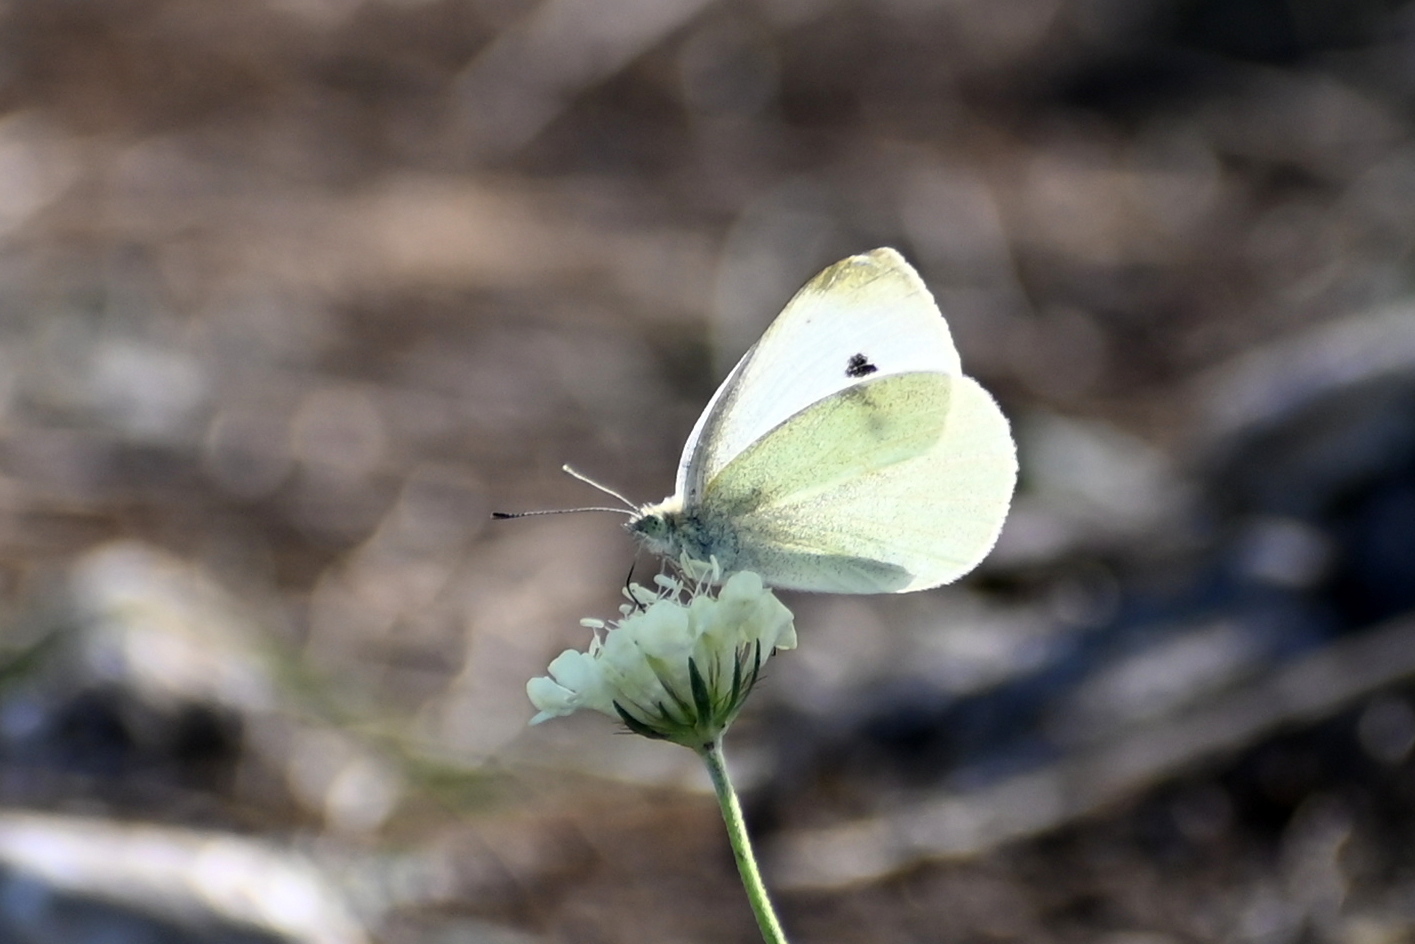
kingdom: Animalia
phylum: Arthropoda
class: Insecta
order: Lepidoptera
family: Pieridae
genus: Pieris
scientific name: Pieris rapae
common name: Small white
